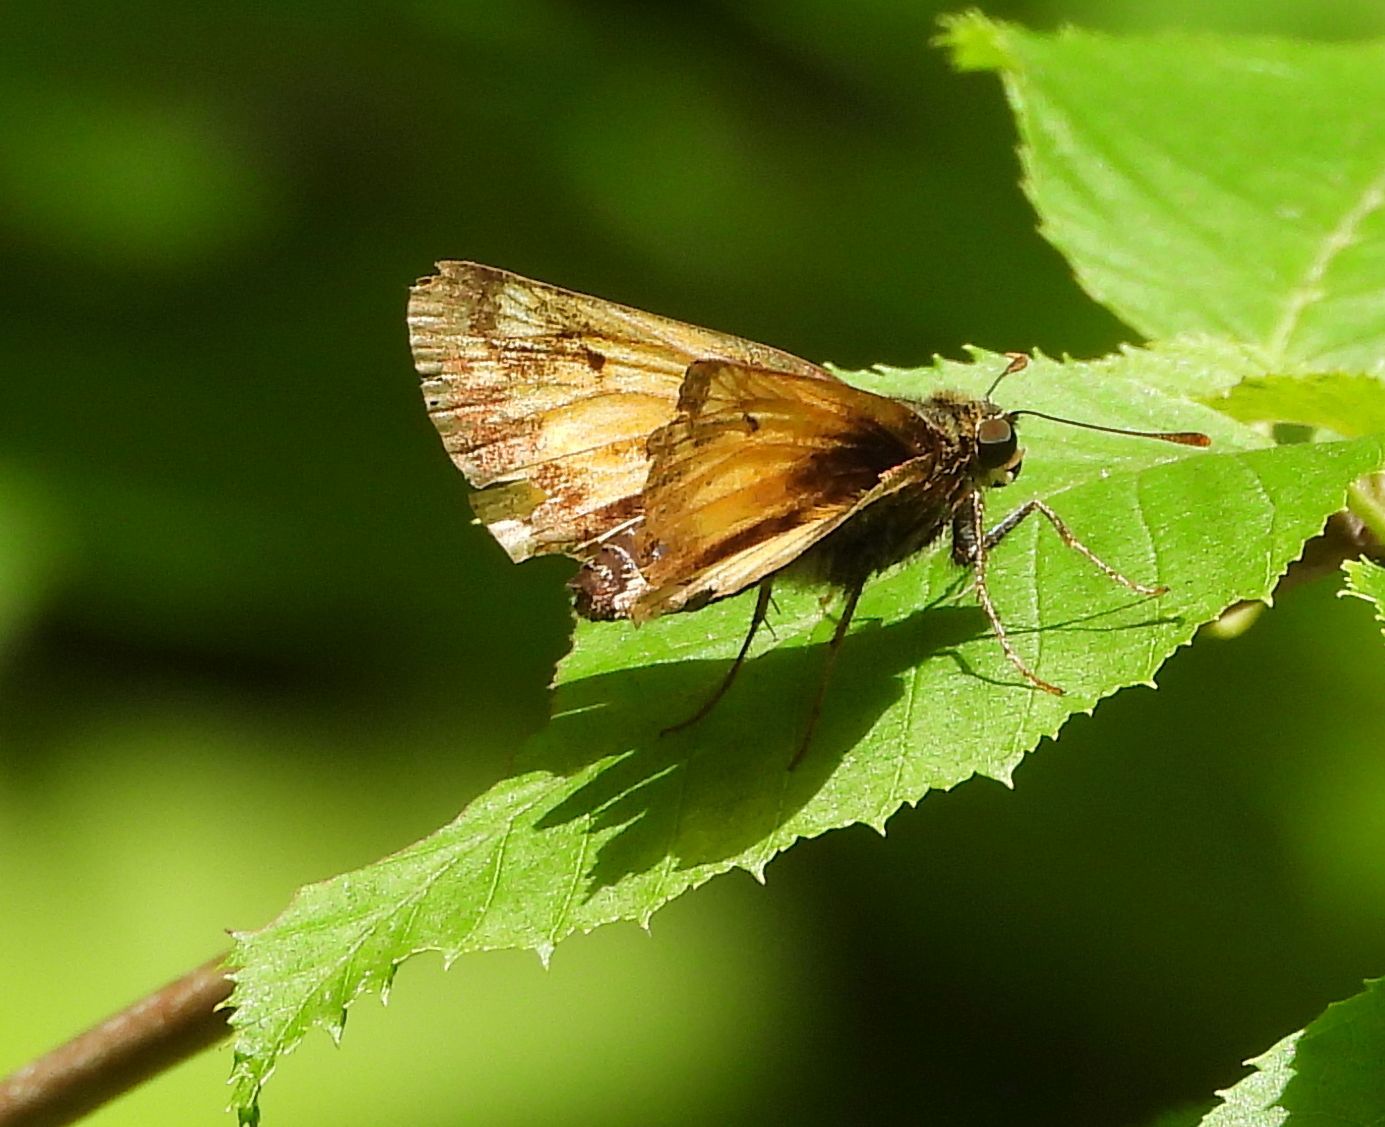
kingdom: Animalia
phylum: Arthropoda
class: Insecta
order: Lepidoptera
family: Hesperiidae
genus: Lon
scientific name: Lon hobomok
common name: Hobomok skipper
